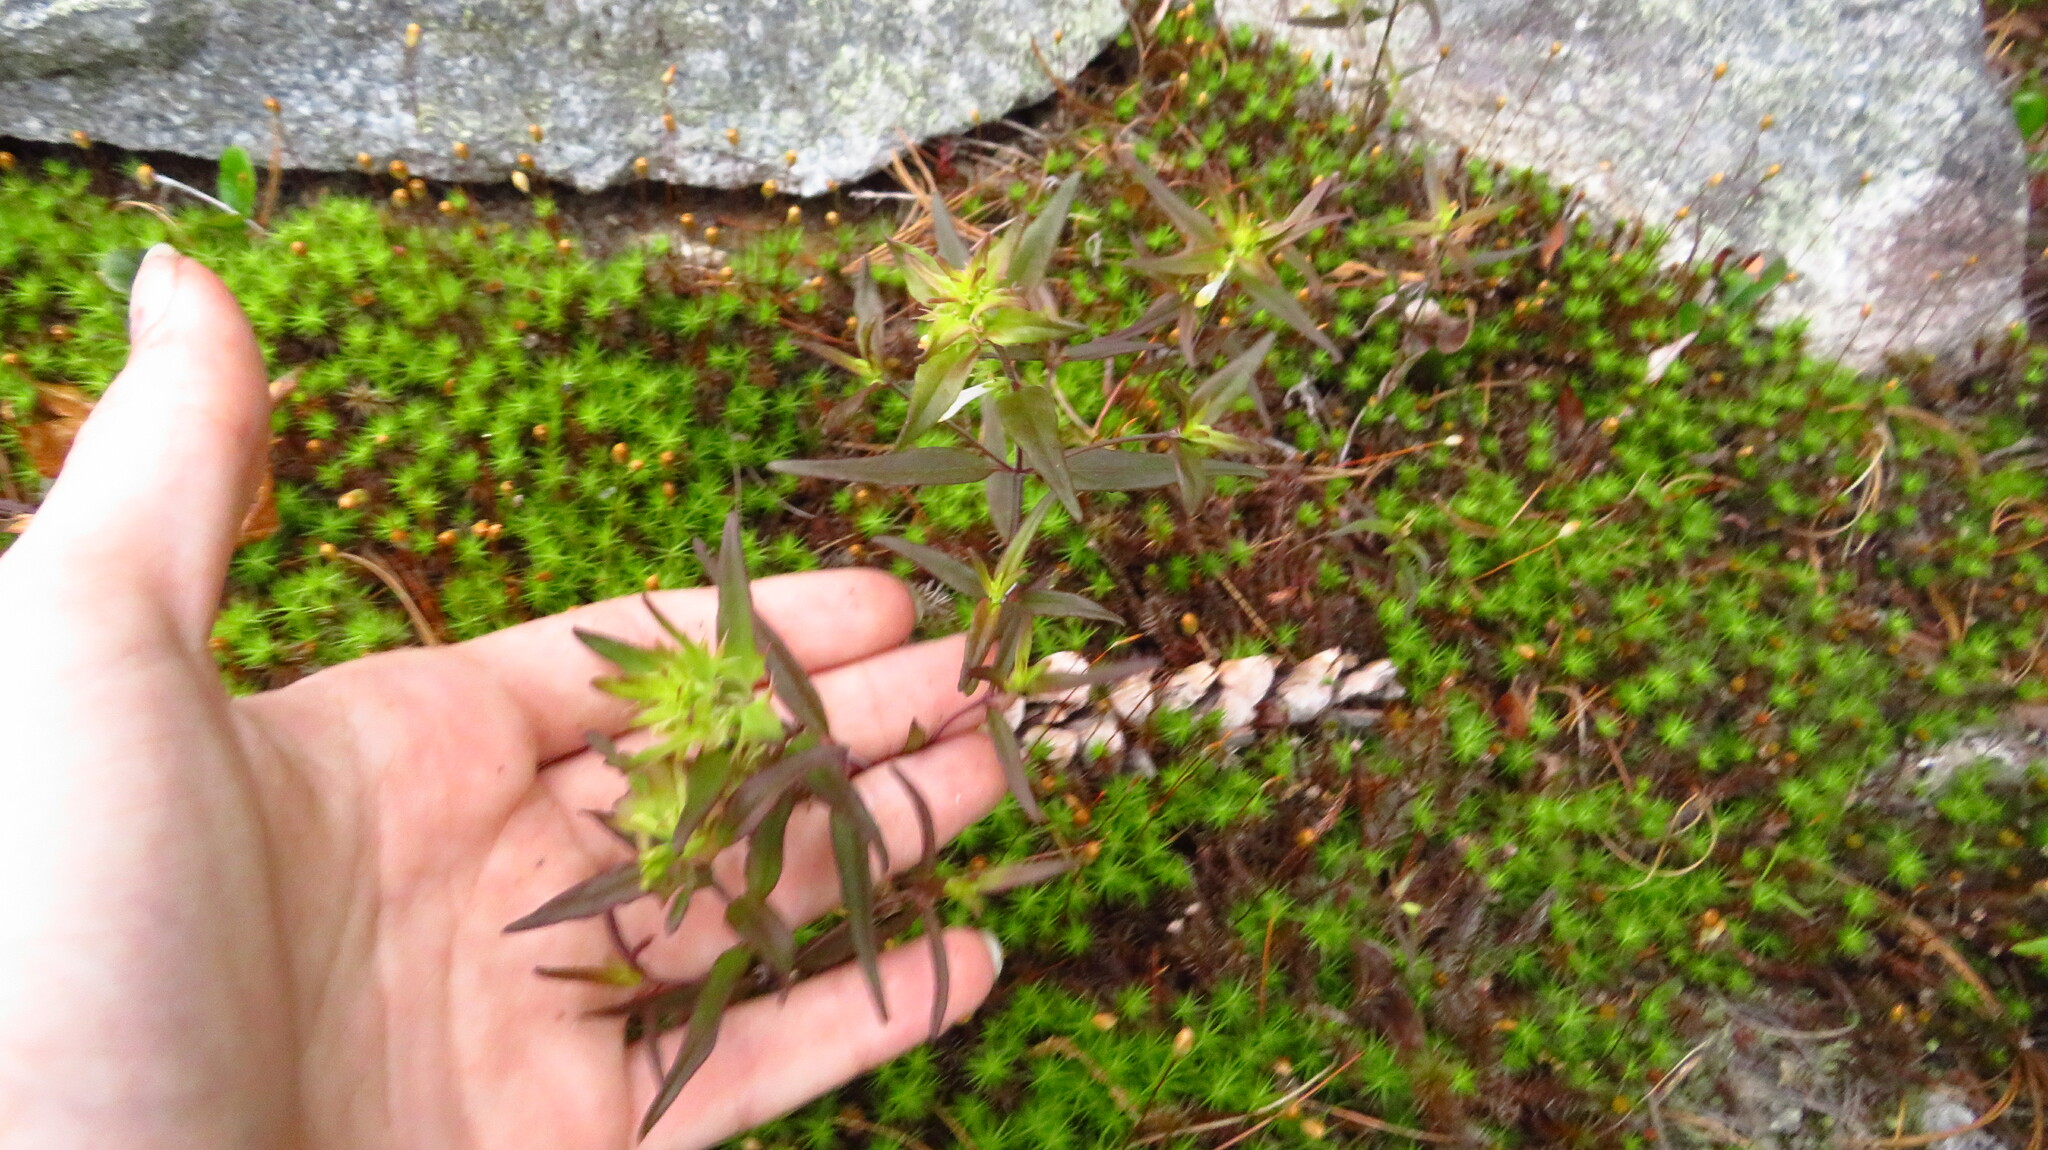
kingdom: Plantae
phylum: Tracheophyta
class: Magnoliopsida
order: Lamiales
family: Orobanchaceae
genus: Melampyrum
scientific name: Melampyrum lineare
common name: American cow-wheat
